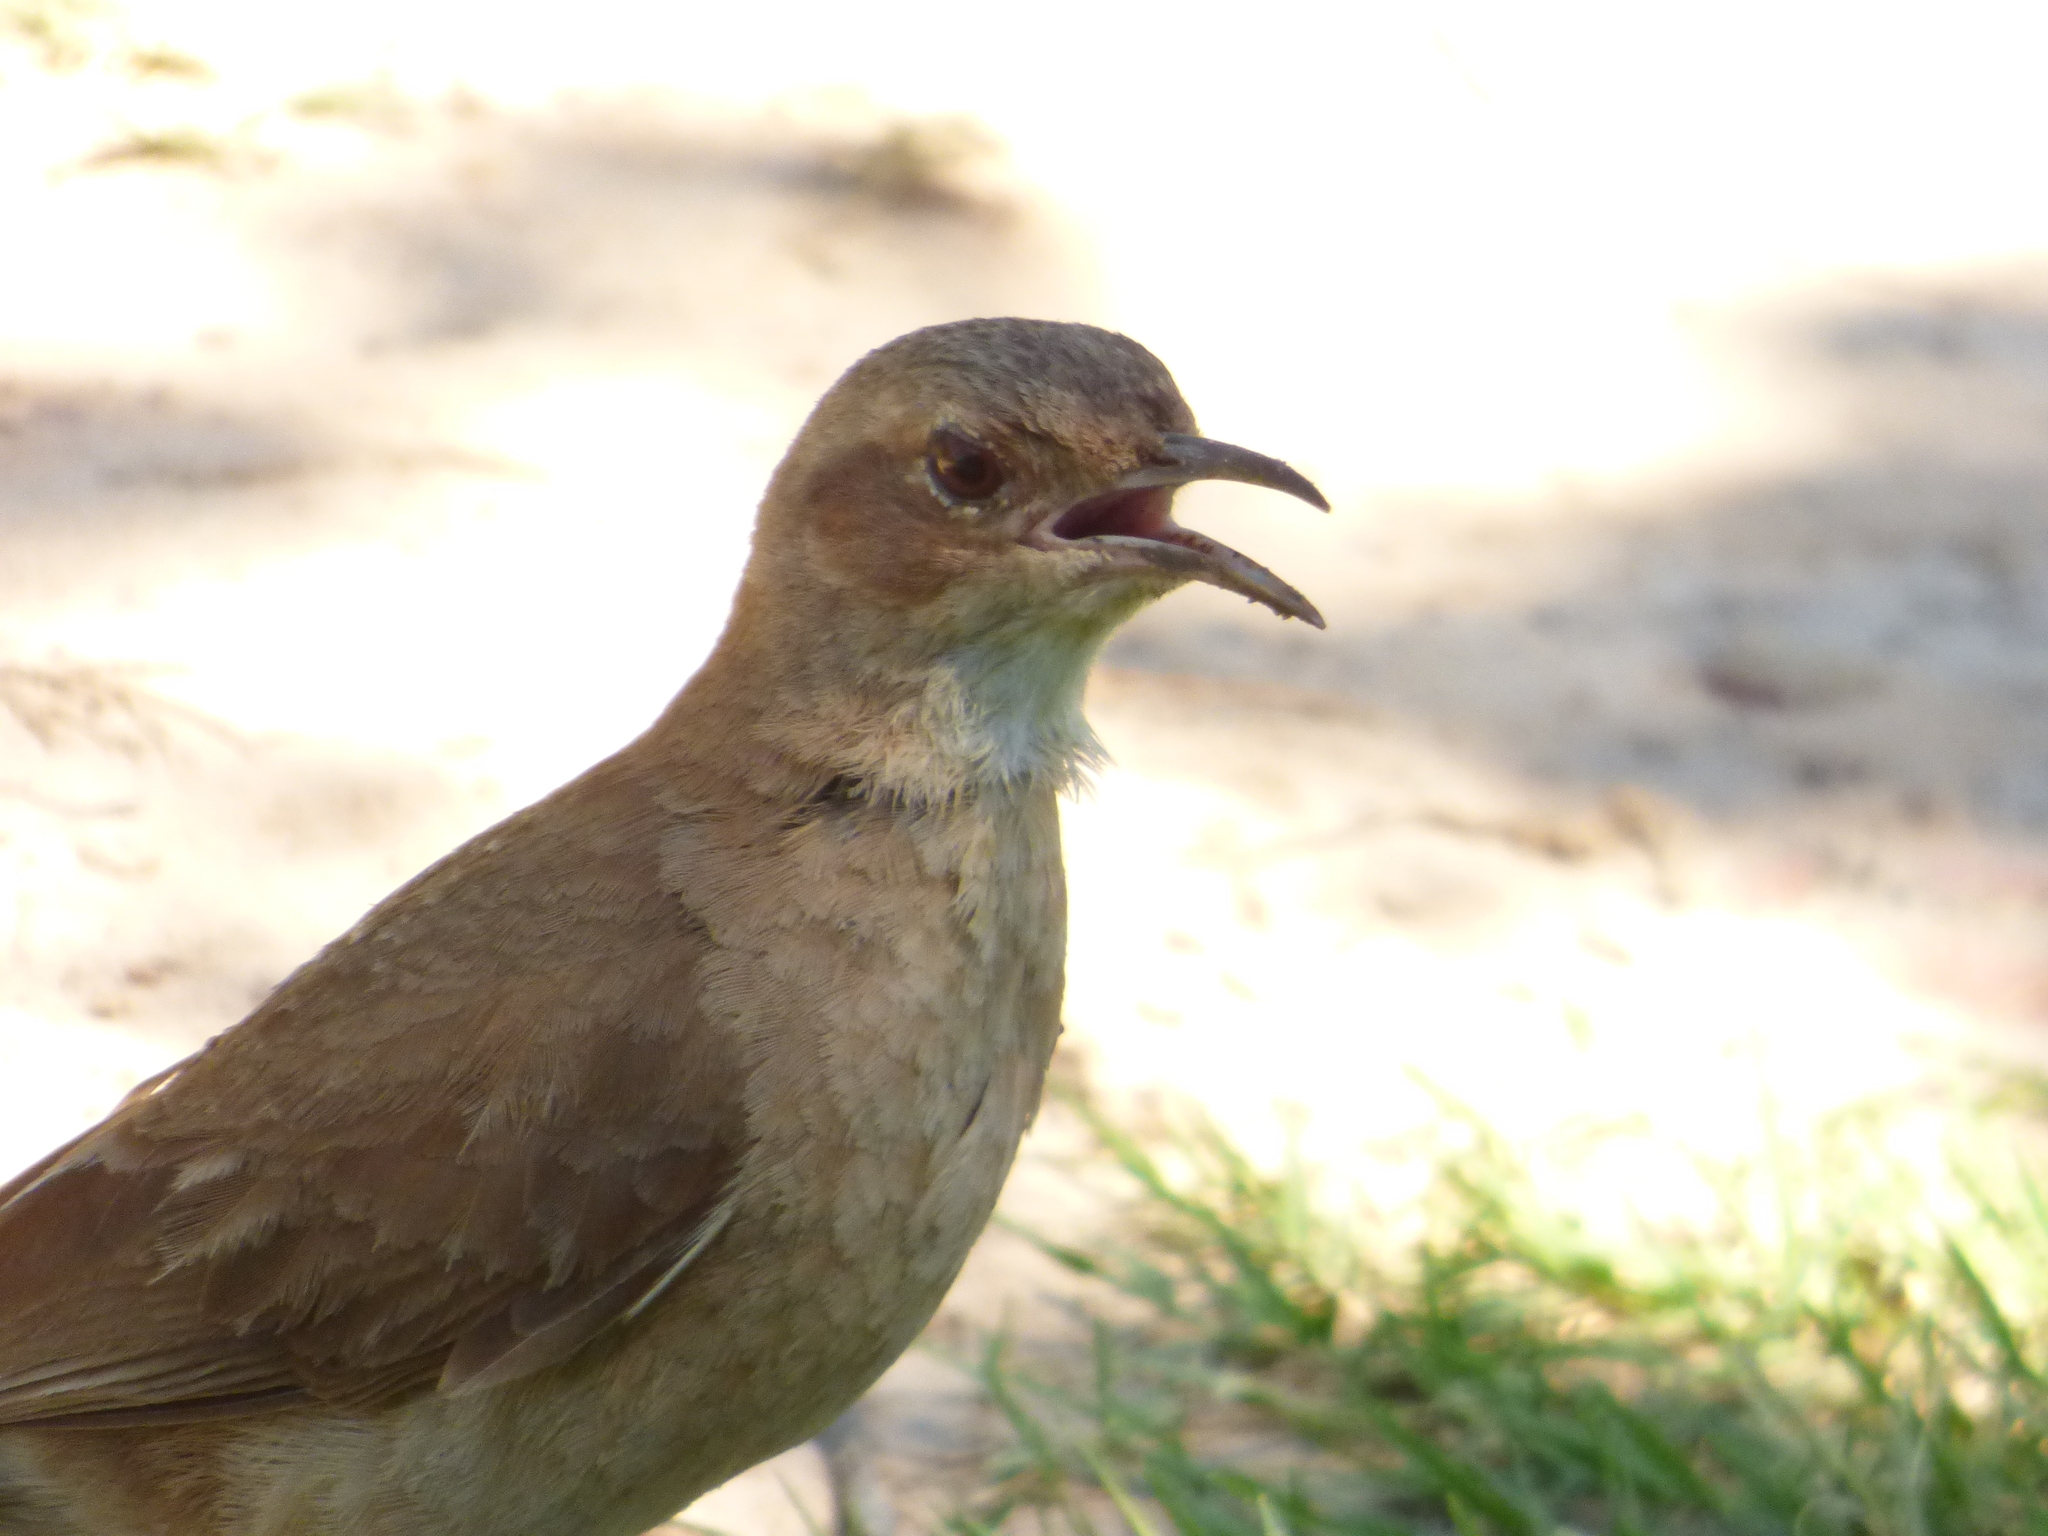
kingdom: Animalia
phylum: Chordata
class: Aves
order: Passeriformes
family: Furnariidae
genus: Furnarius
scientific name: Furnarius rufus
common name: Rufous hornero
